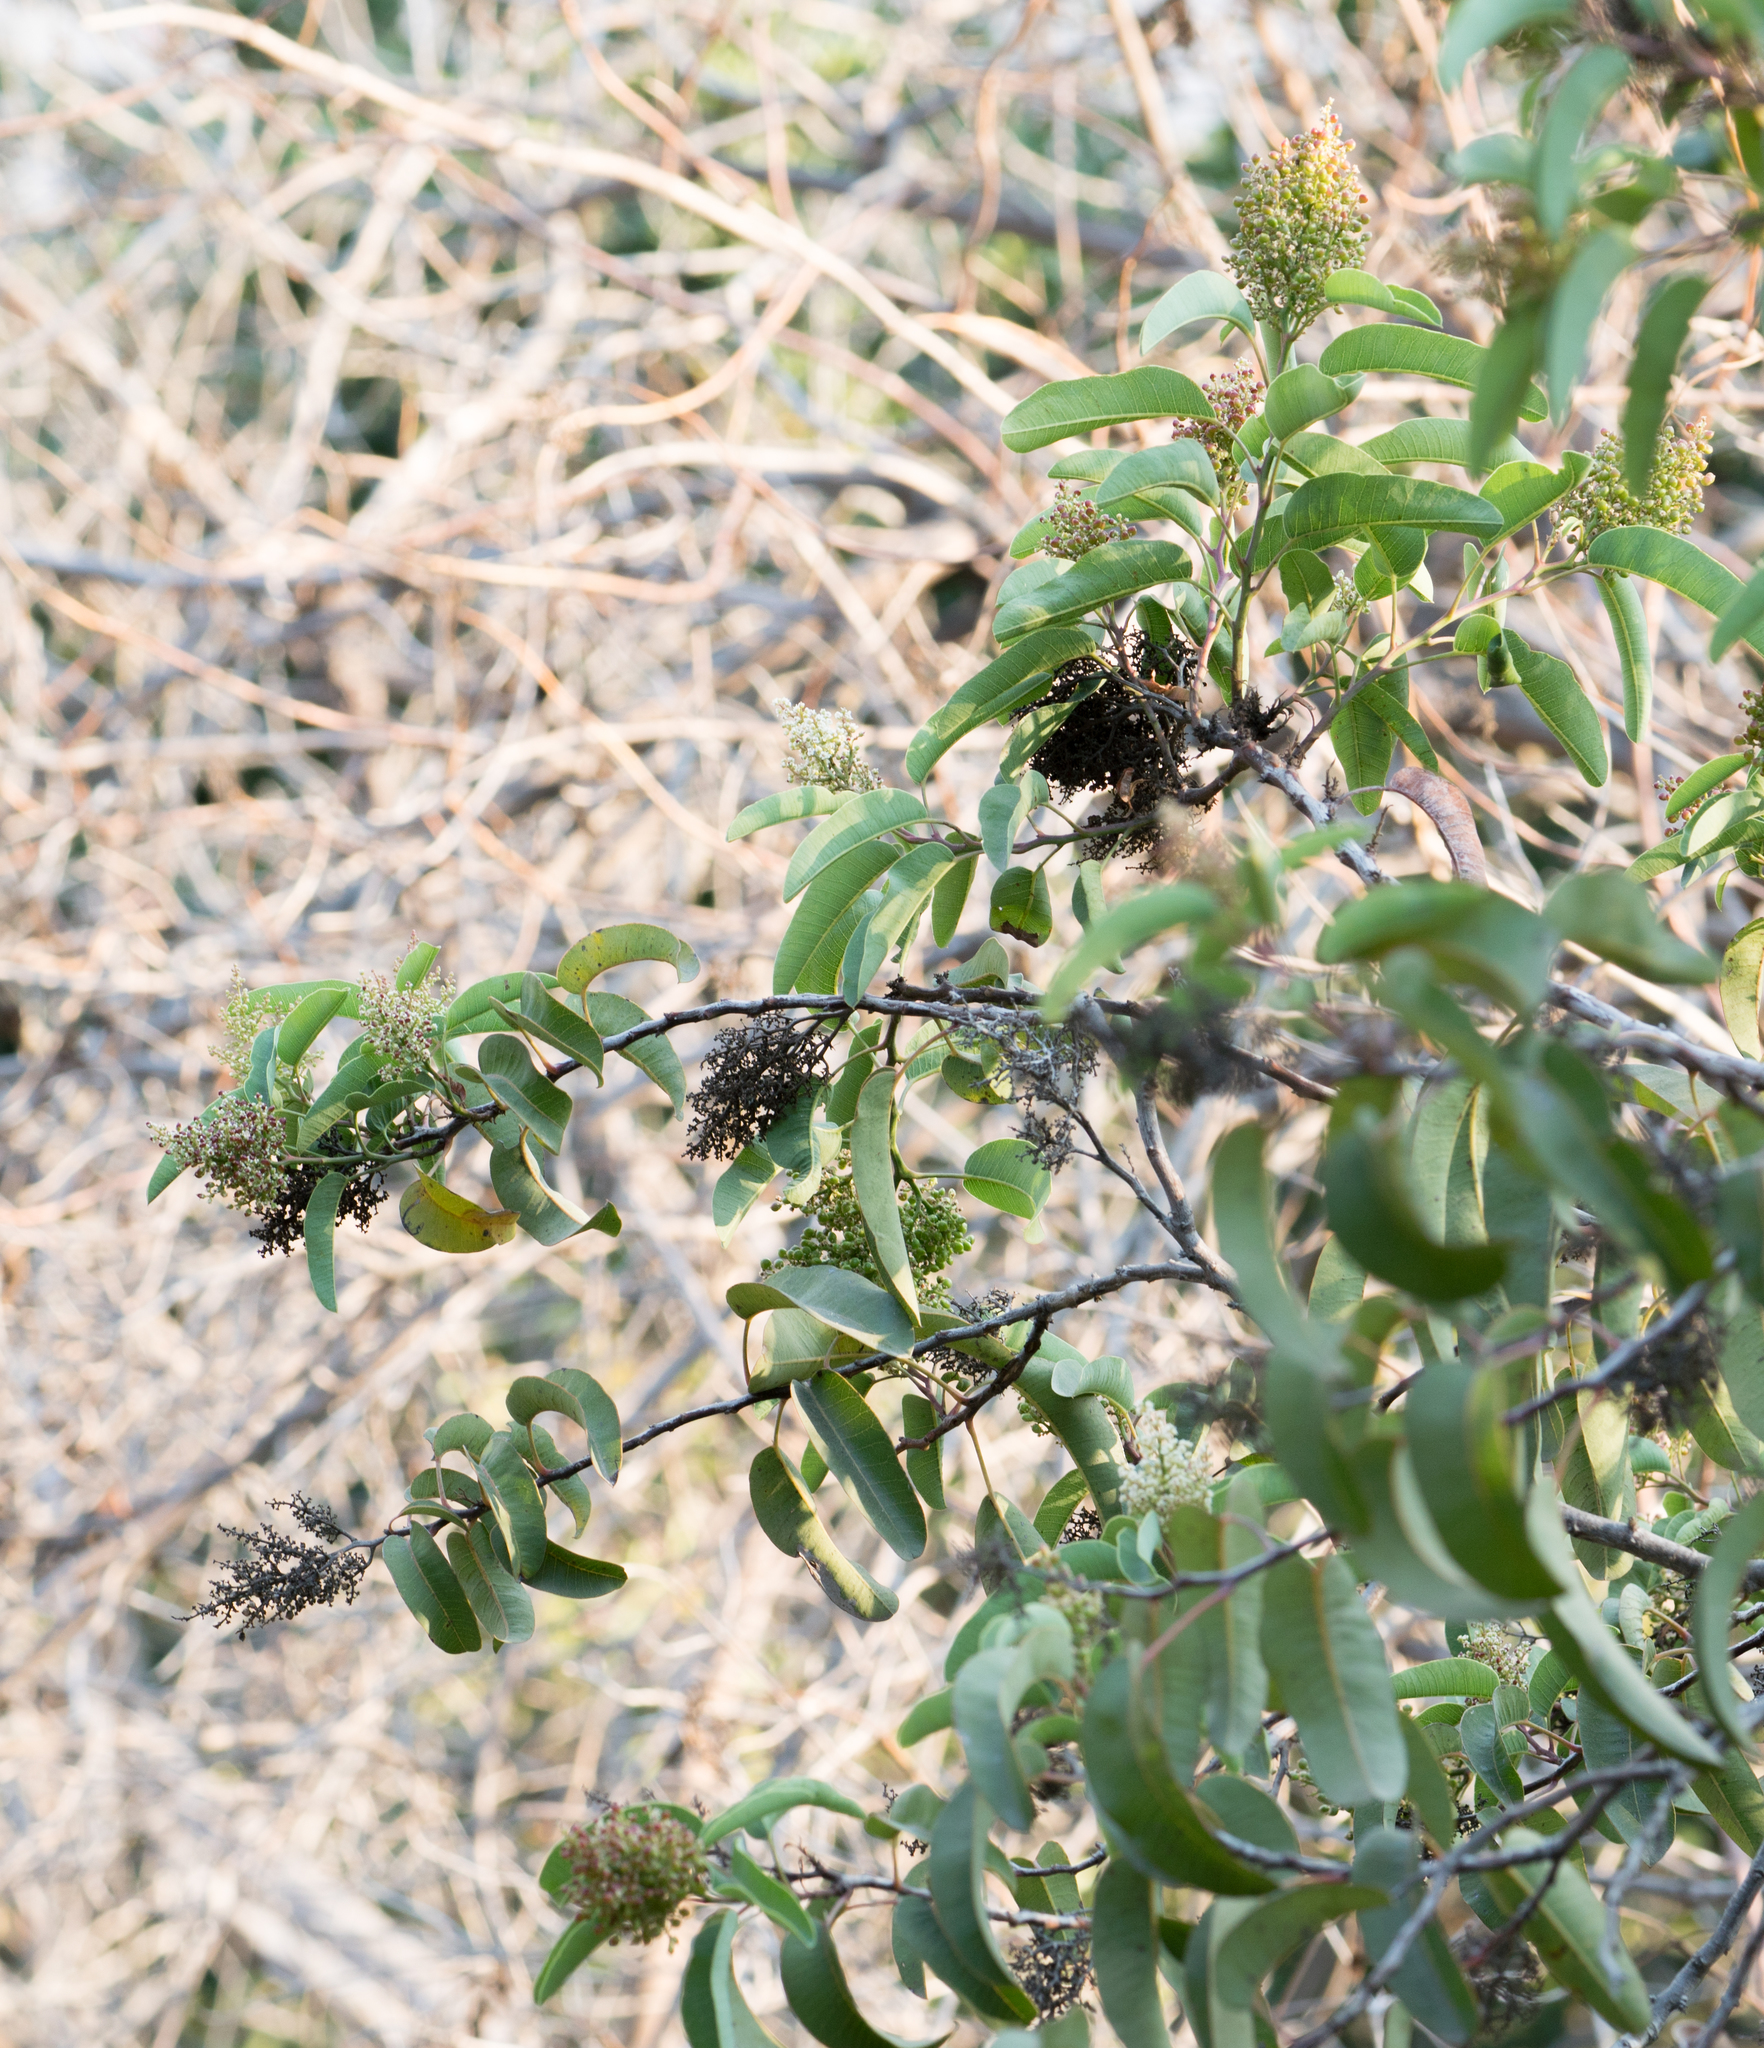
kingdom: Plantae
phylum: Tracheophyta
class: Magnoliopsida
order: Sapindales
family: Anacardiaceae
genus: Malosma
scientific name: Malosma laurina
